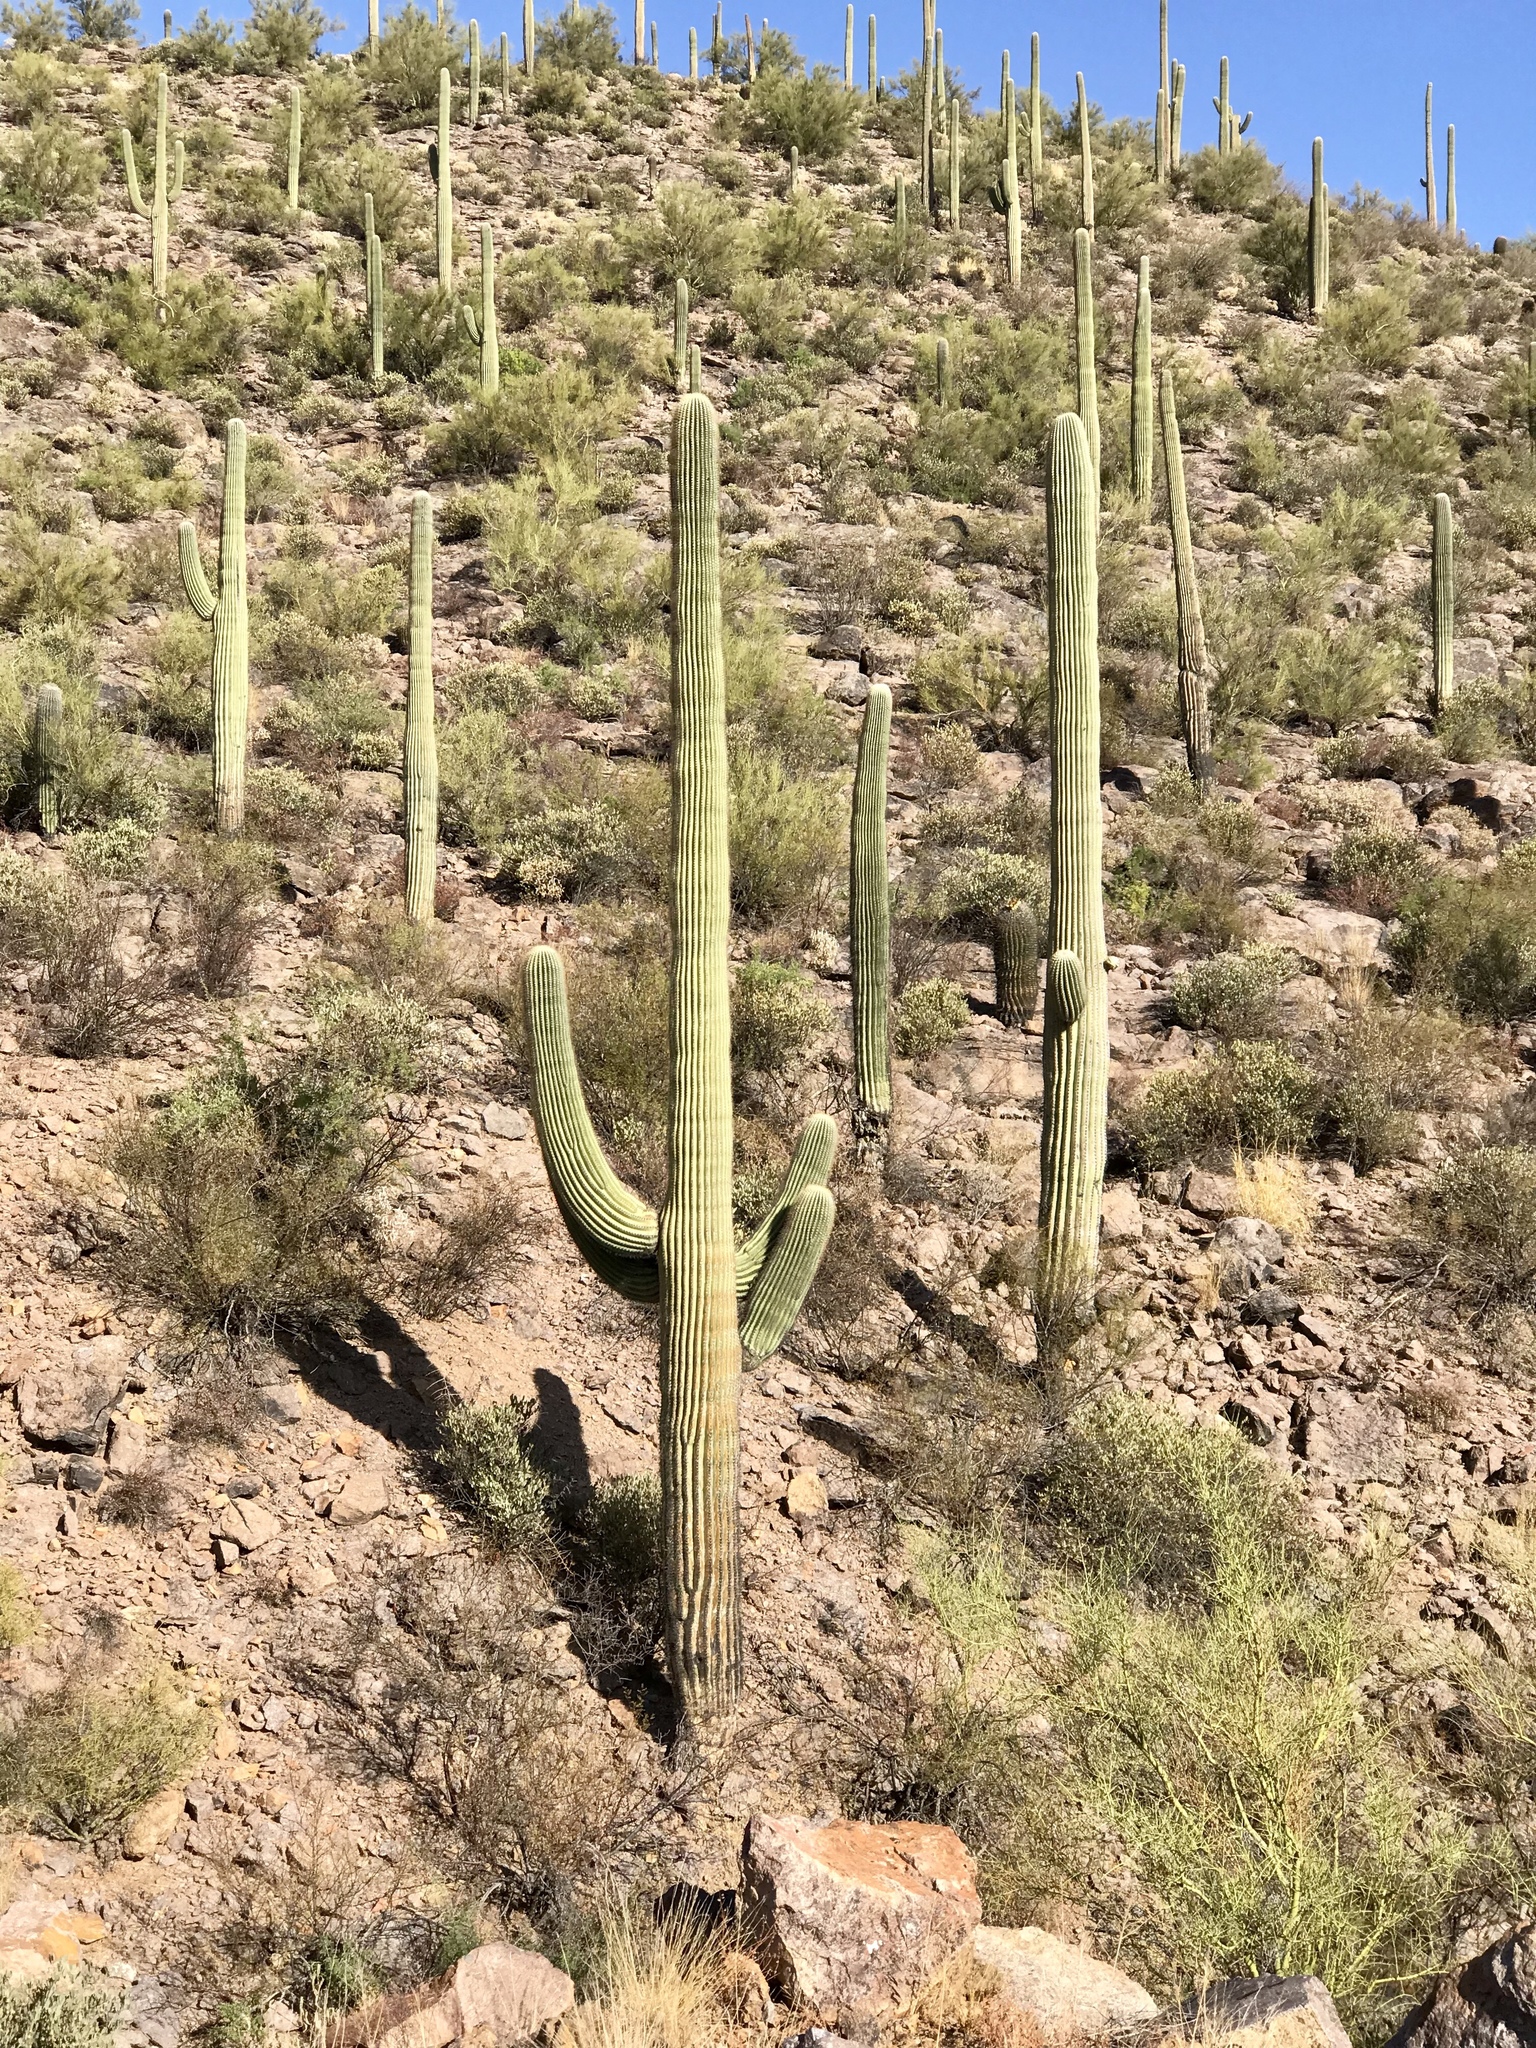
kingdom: Plantae
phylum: Tracheophyta
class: Magnoliopsida
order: Caryophyllales
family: Cactaceae
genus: Carnegiea
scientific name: Carnegiea gigantea
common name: Saguaro
